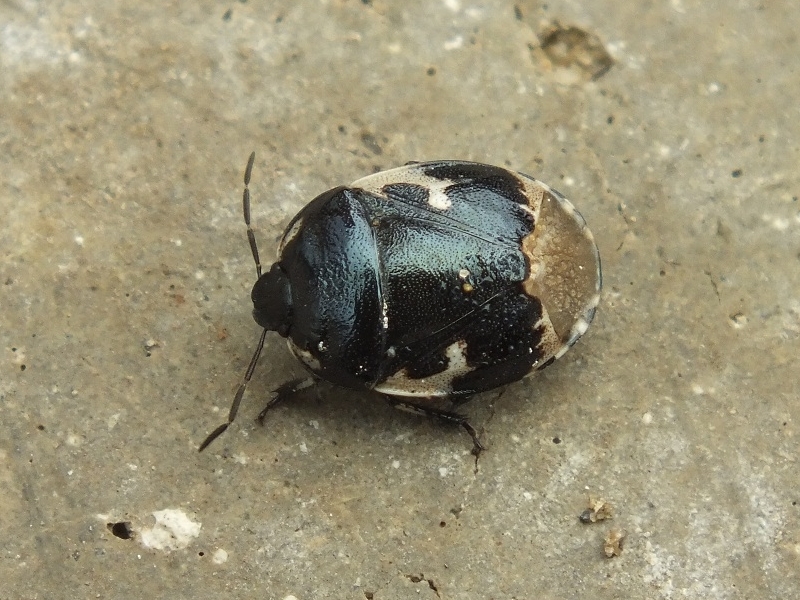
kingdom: Animalia
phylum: Arthropoda
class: Insecta
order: Hemiptera
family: Cydnidae
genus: Tritomegas
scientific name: Tritomegas bicolor
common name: Pied shieldbug
